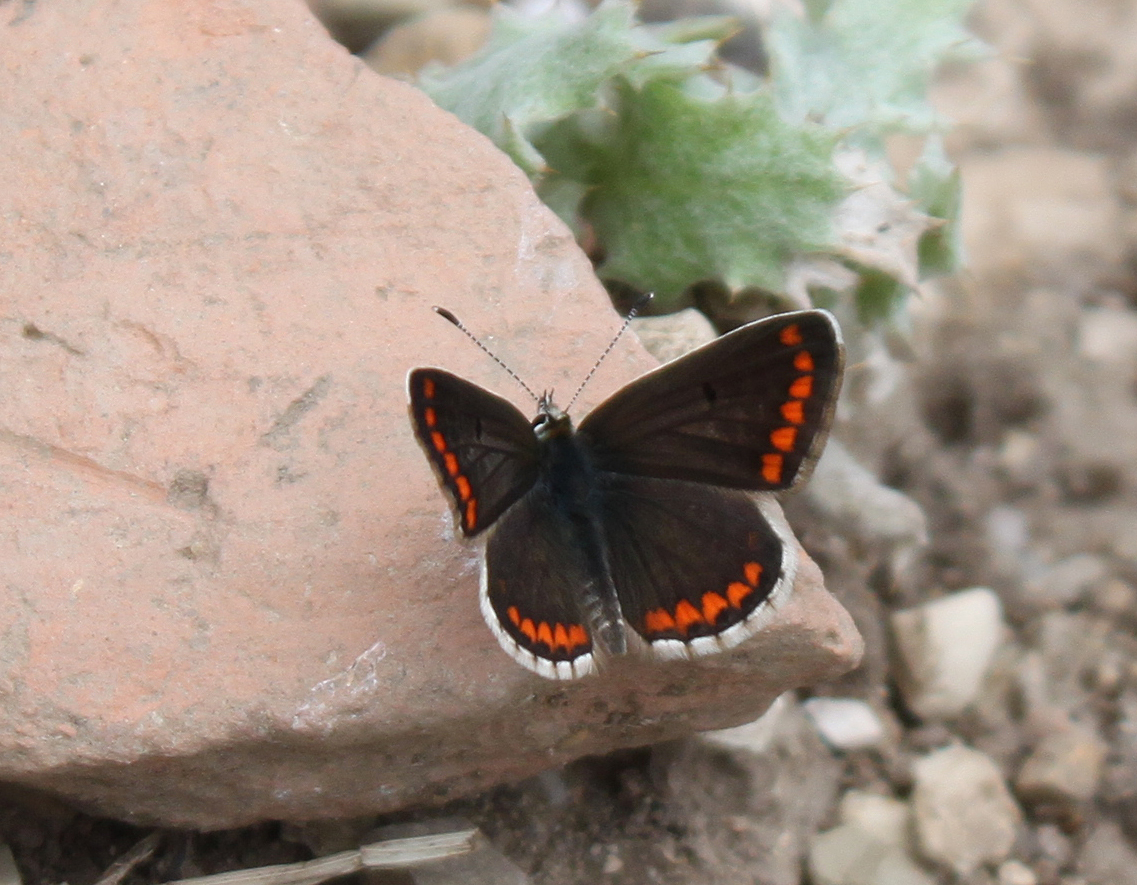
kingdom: Animalia
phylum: Arthropoda
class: Insecta
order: Lepidoptera
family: Lycaenidae
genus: Aricia
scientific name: Aricia agestis
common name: Brown argus
